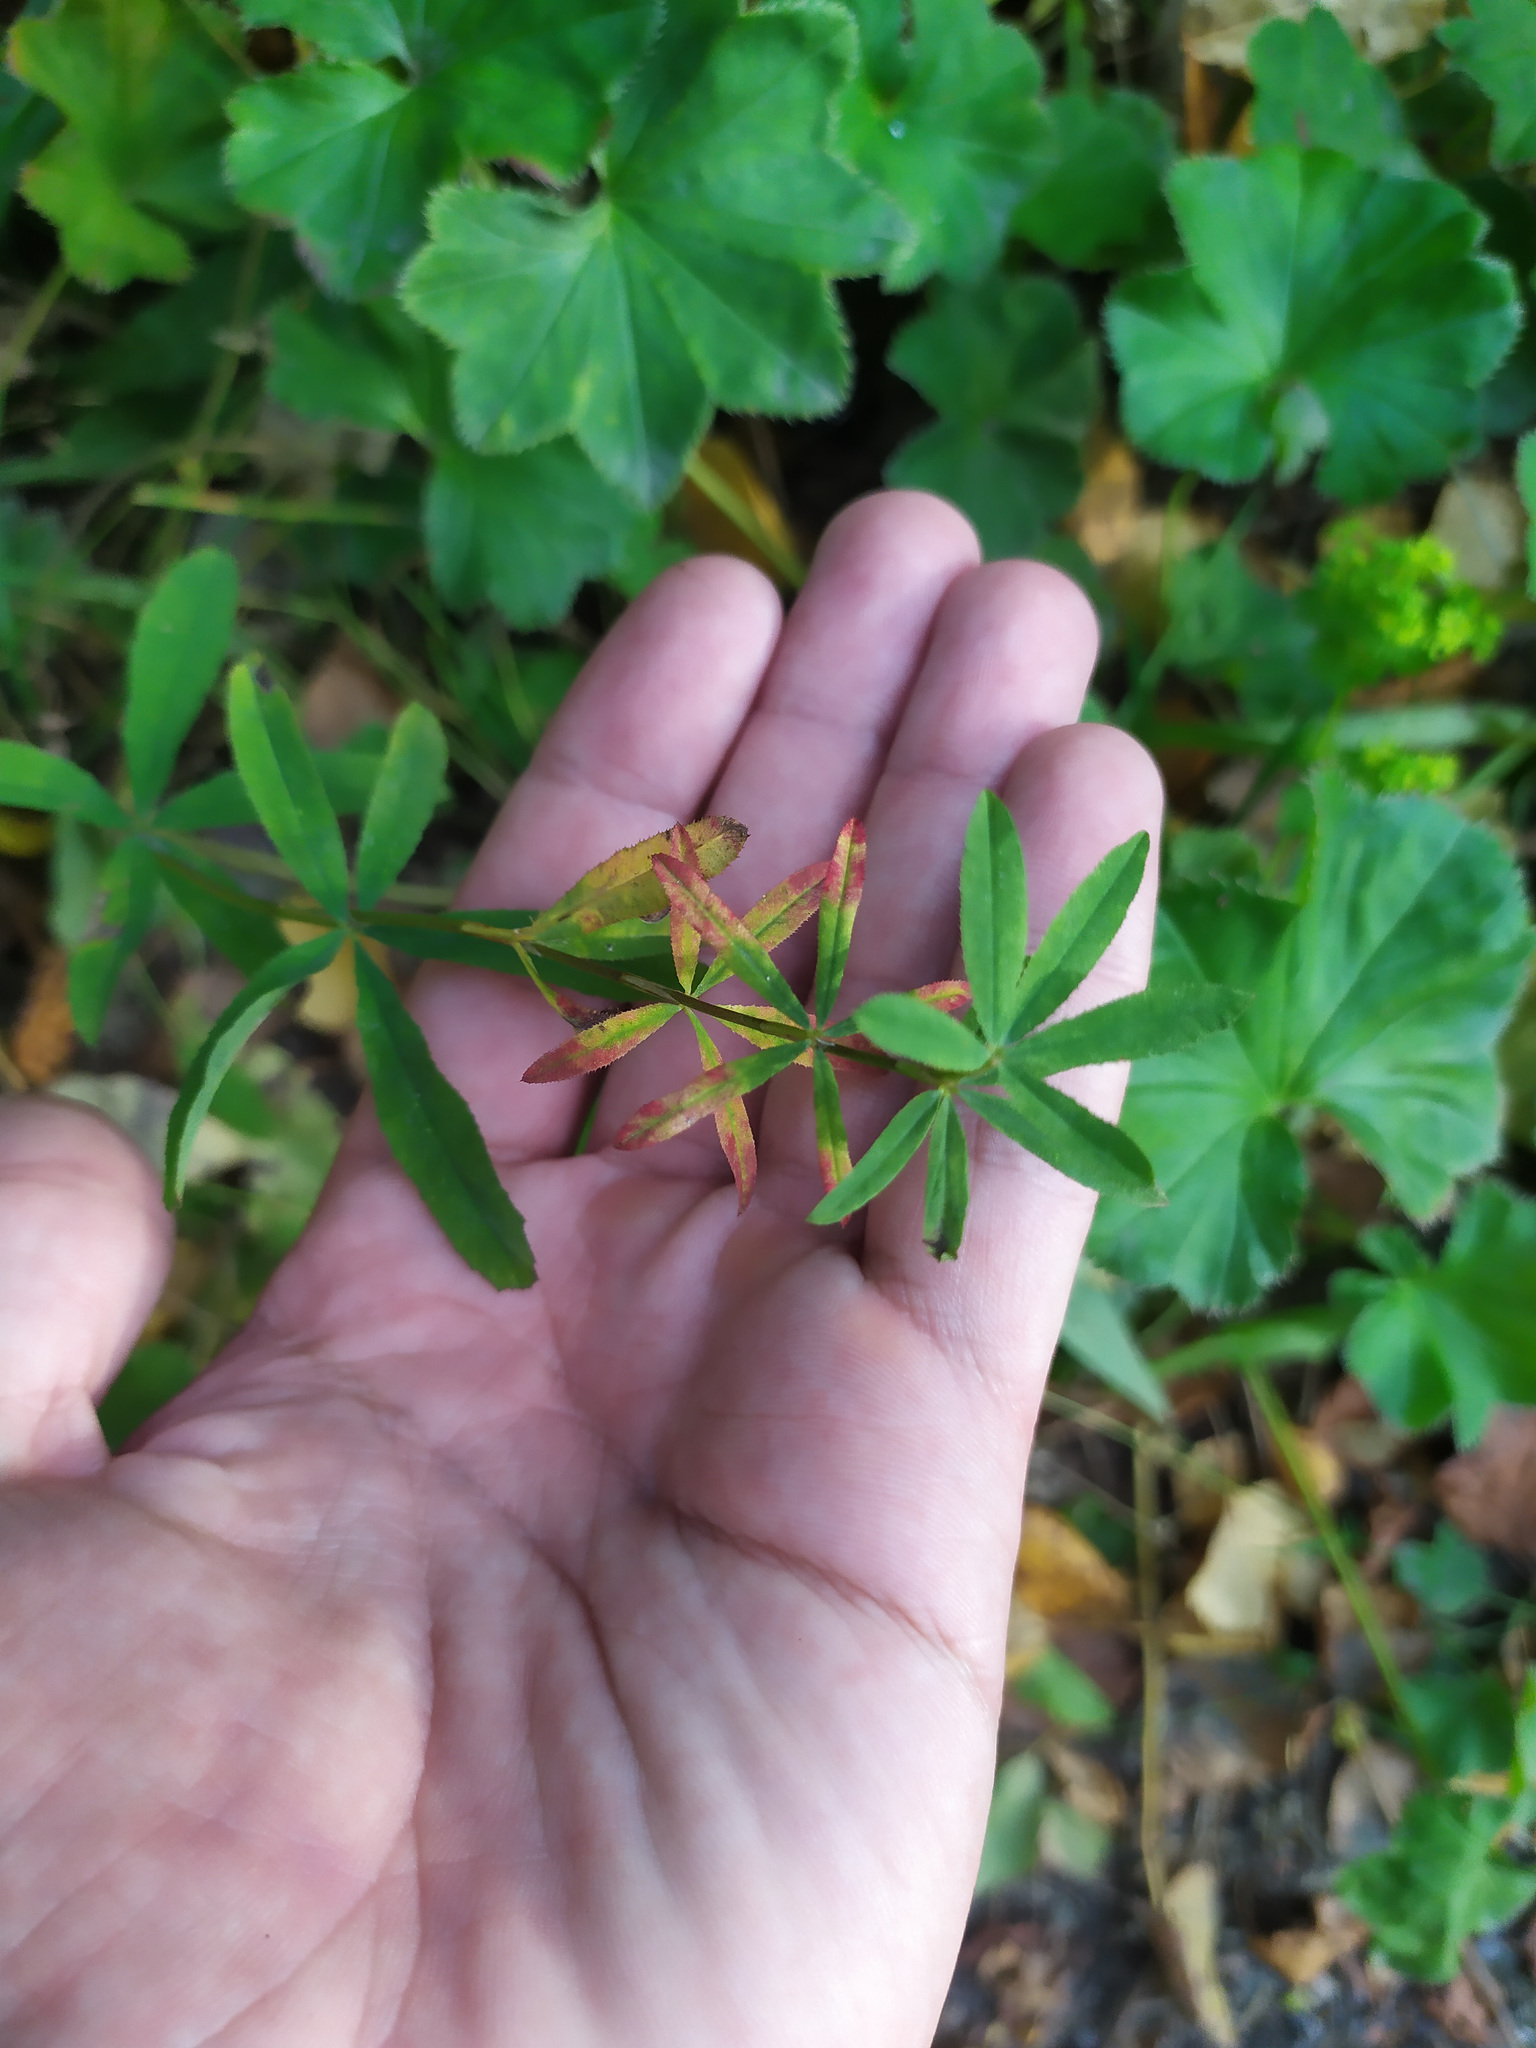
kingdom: Plantae
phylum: Tracheophyta
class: Magnoliopsida
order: Fabales
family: Fabaceae
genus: Trifolium
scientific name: Trifolium lupinaster
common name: Lupine clover
